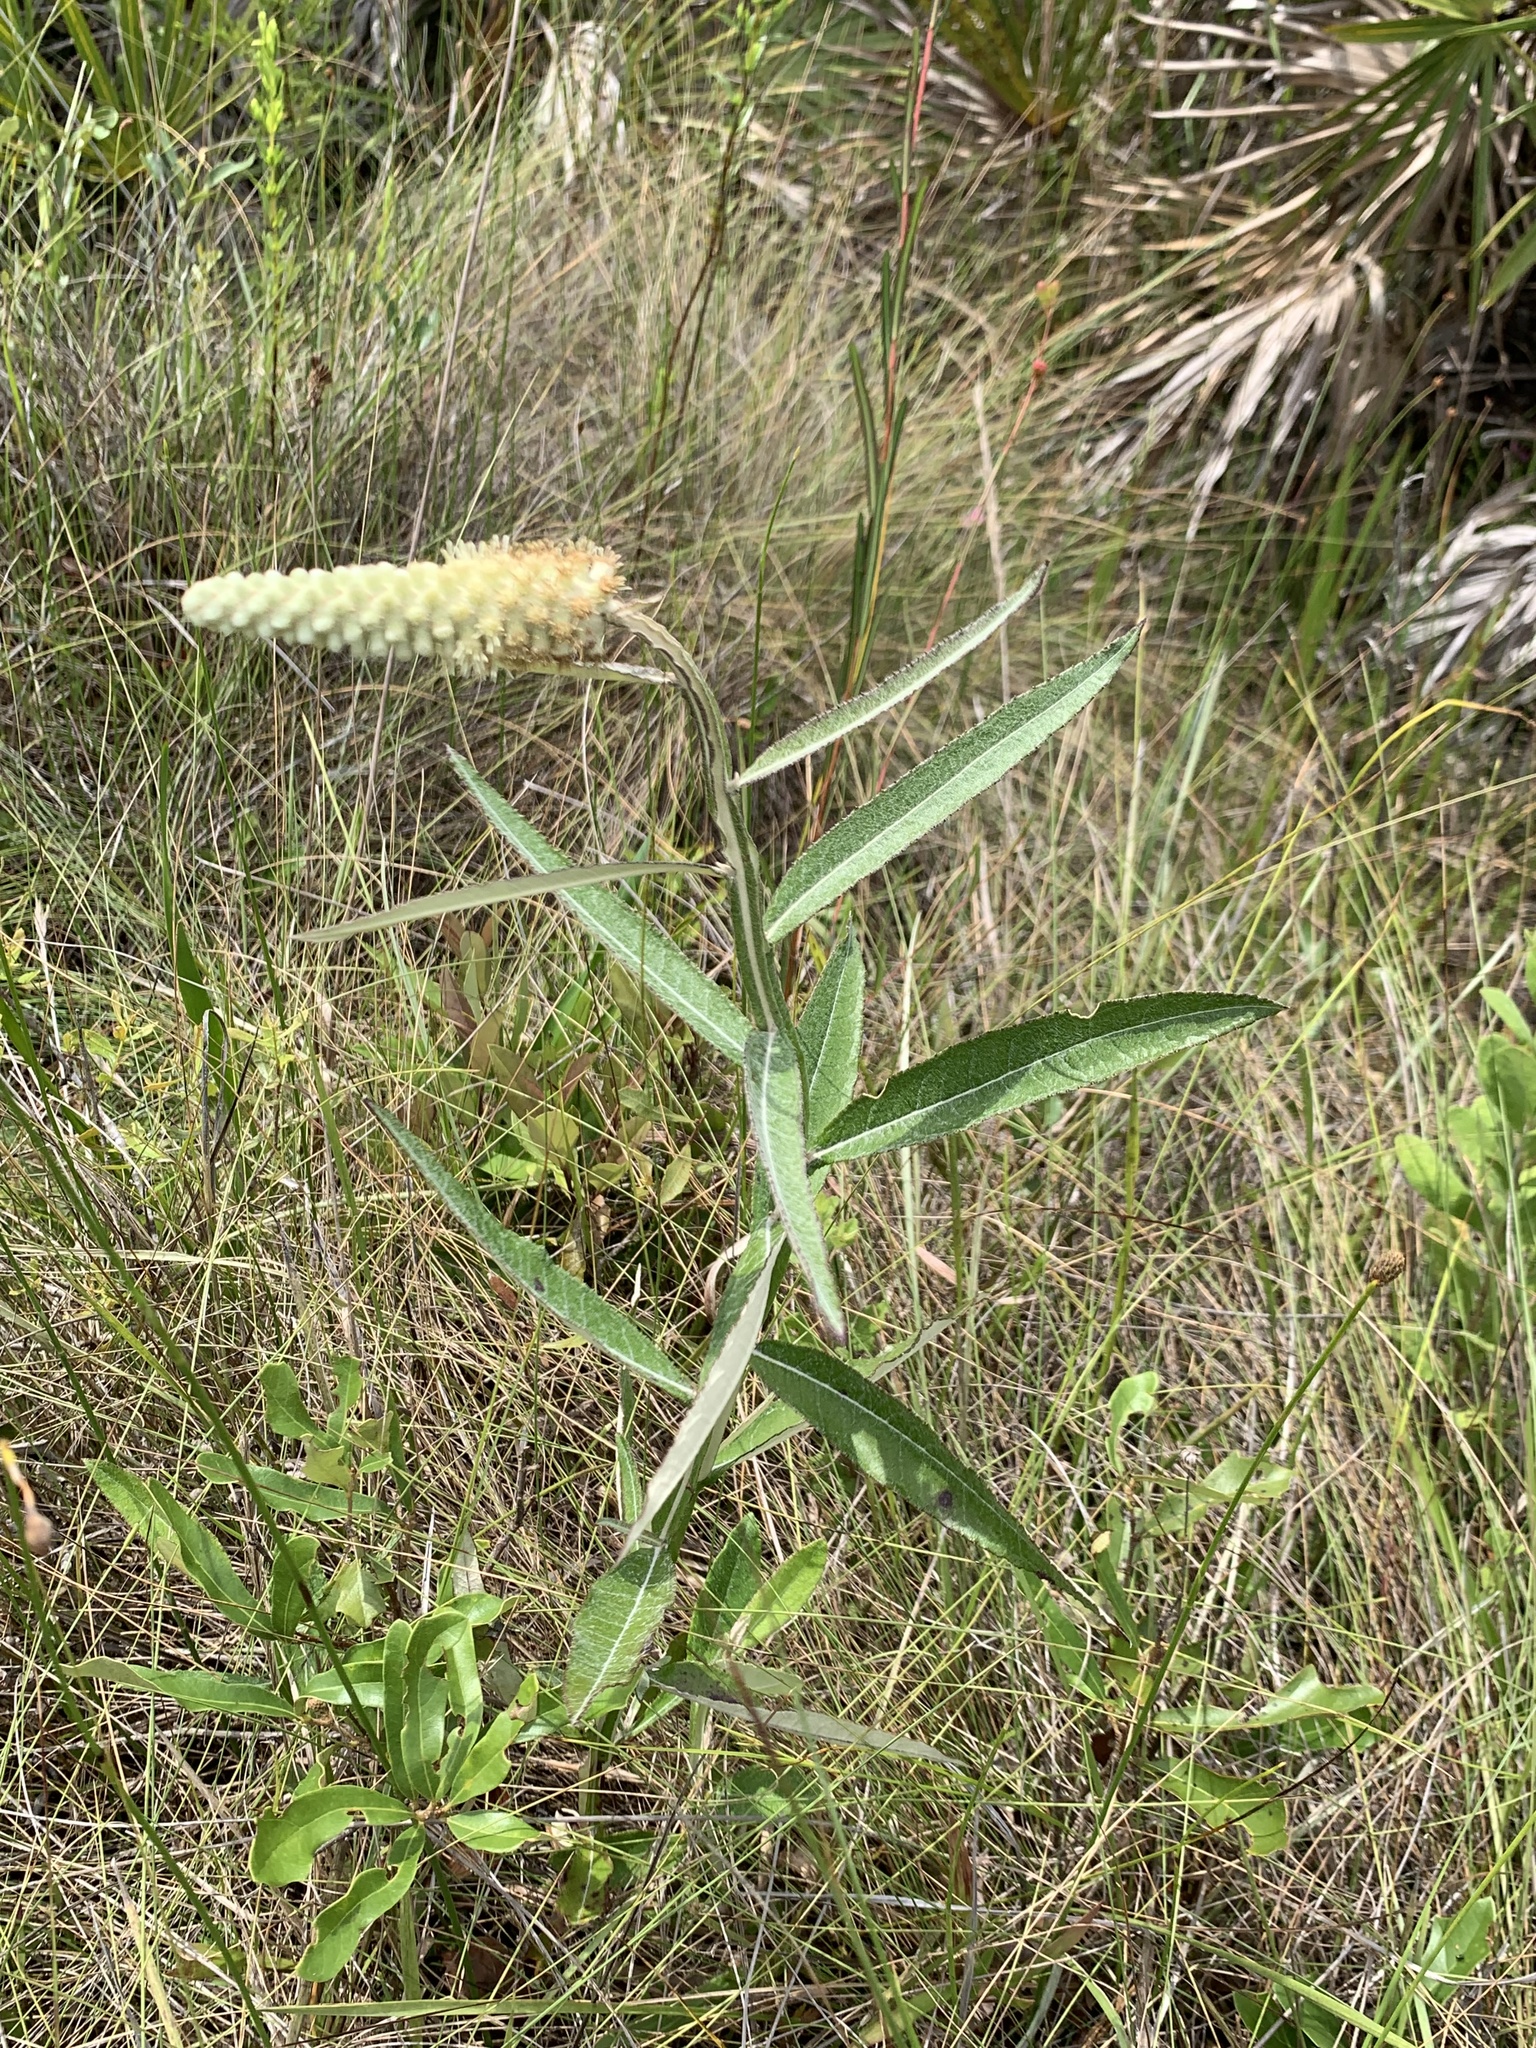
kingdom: Plantae
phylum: Tracheophyta
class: Magnoliopsida
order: Asterales
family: Asteraceae
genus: Pterocaulon
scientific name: Pterocaulon pycnostachyum
